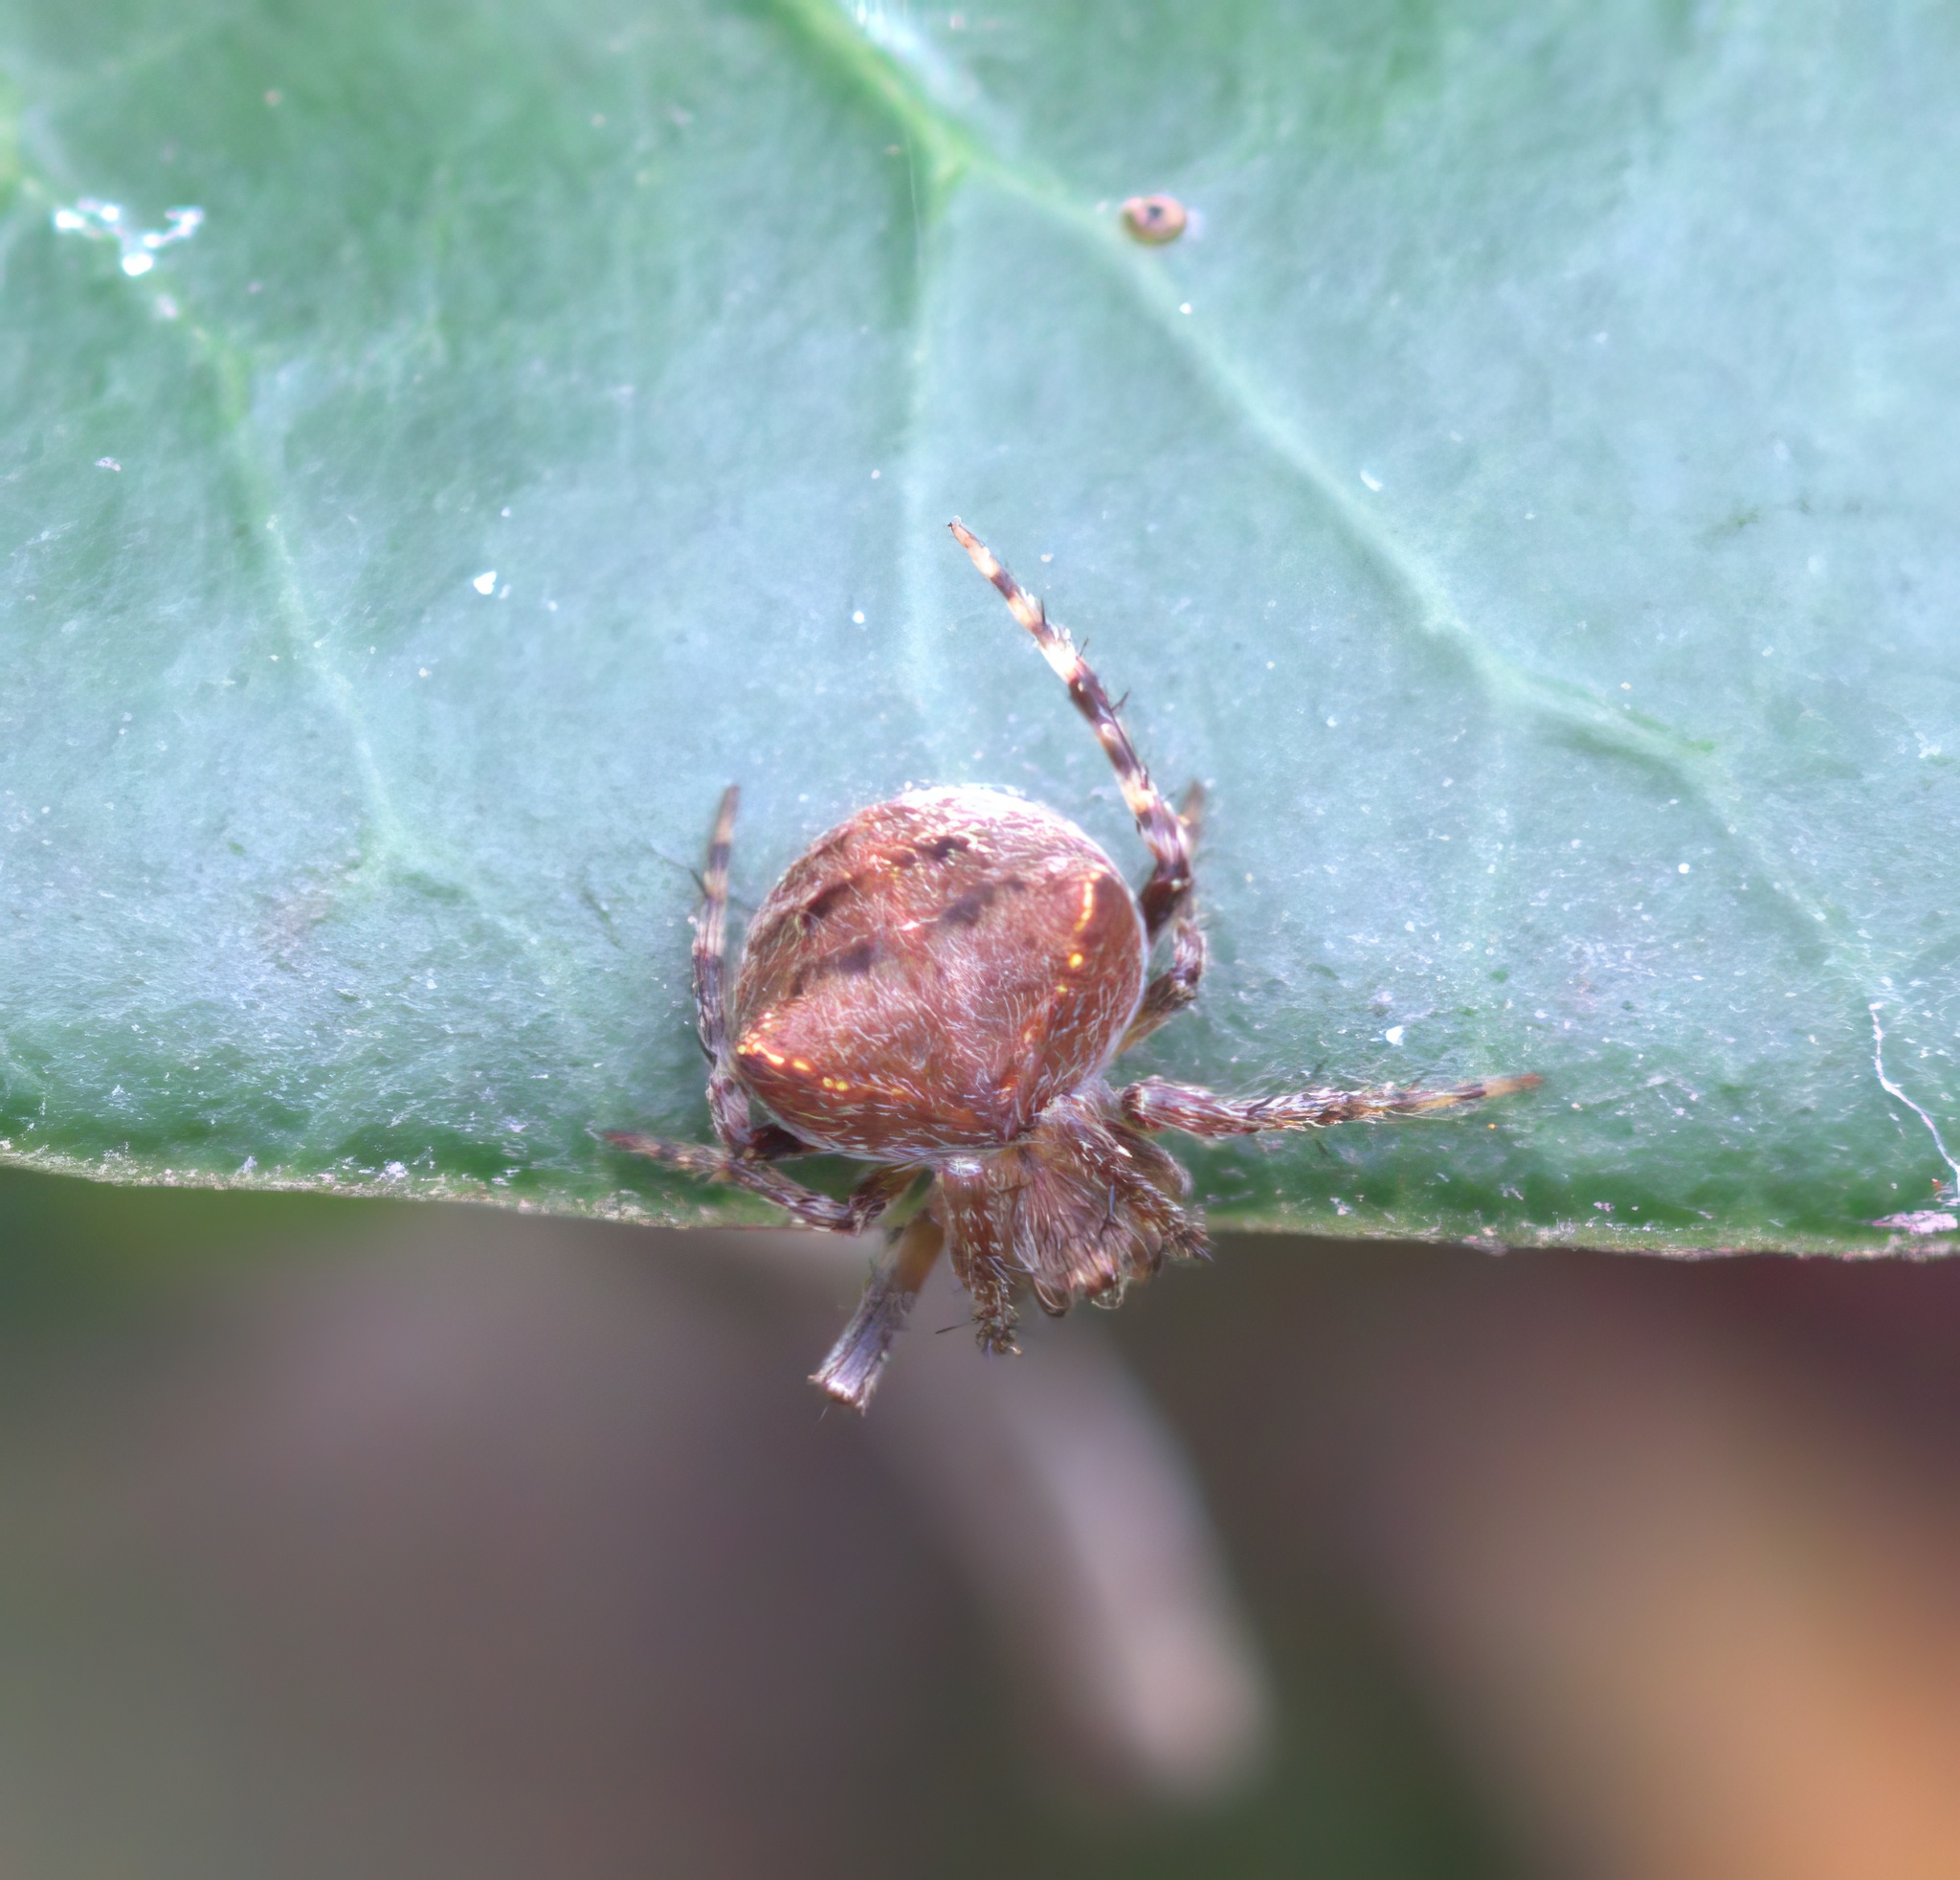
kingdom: Animalia
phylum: Arthropoda
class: Arachnida
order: Araneae
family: Araneidae
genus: Araneus
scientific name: Araneus montereyensis
